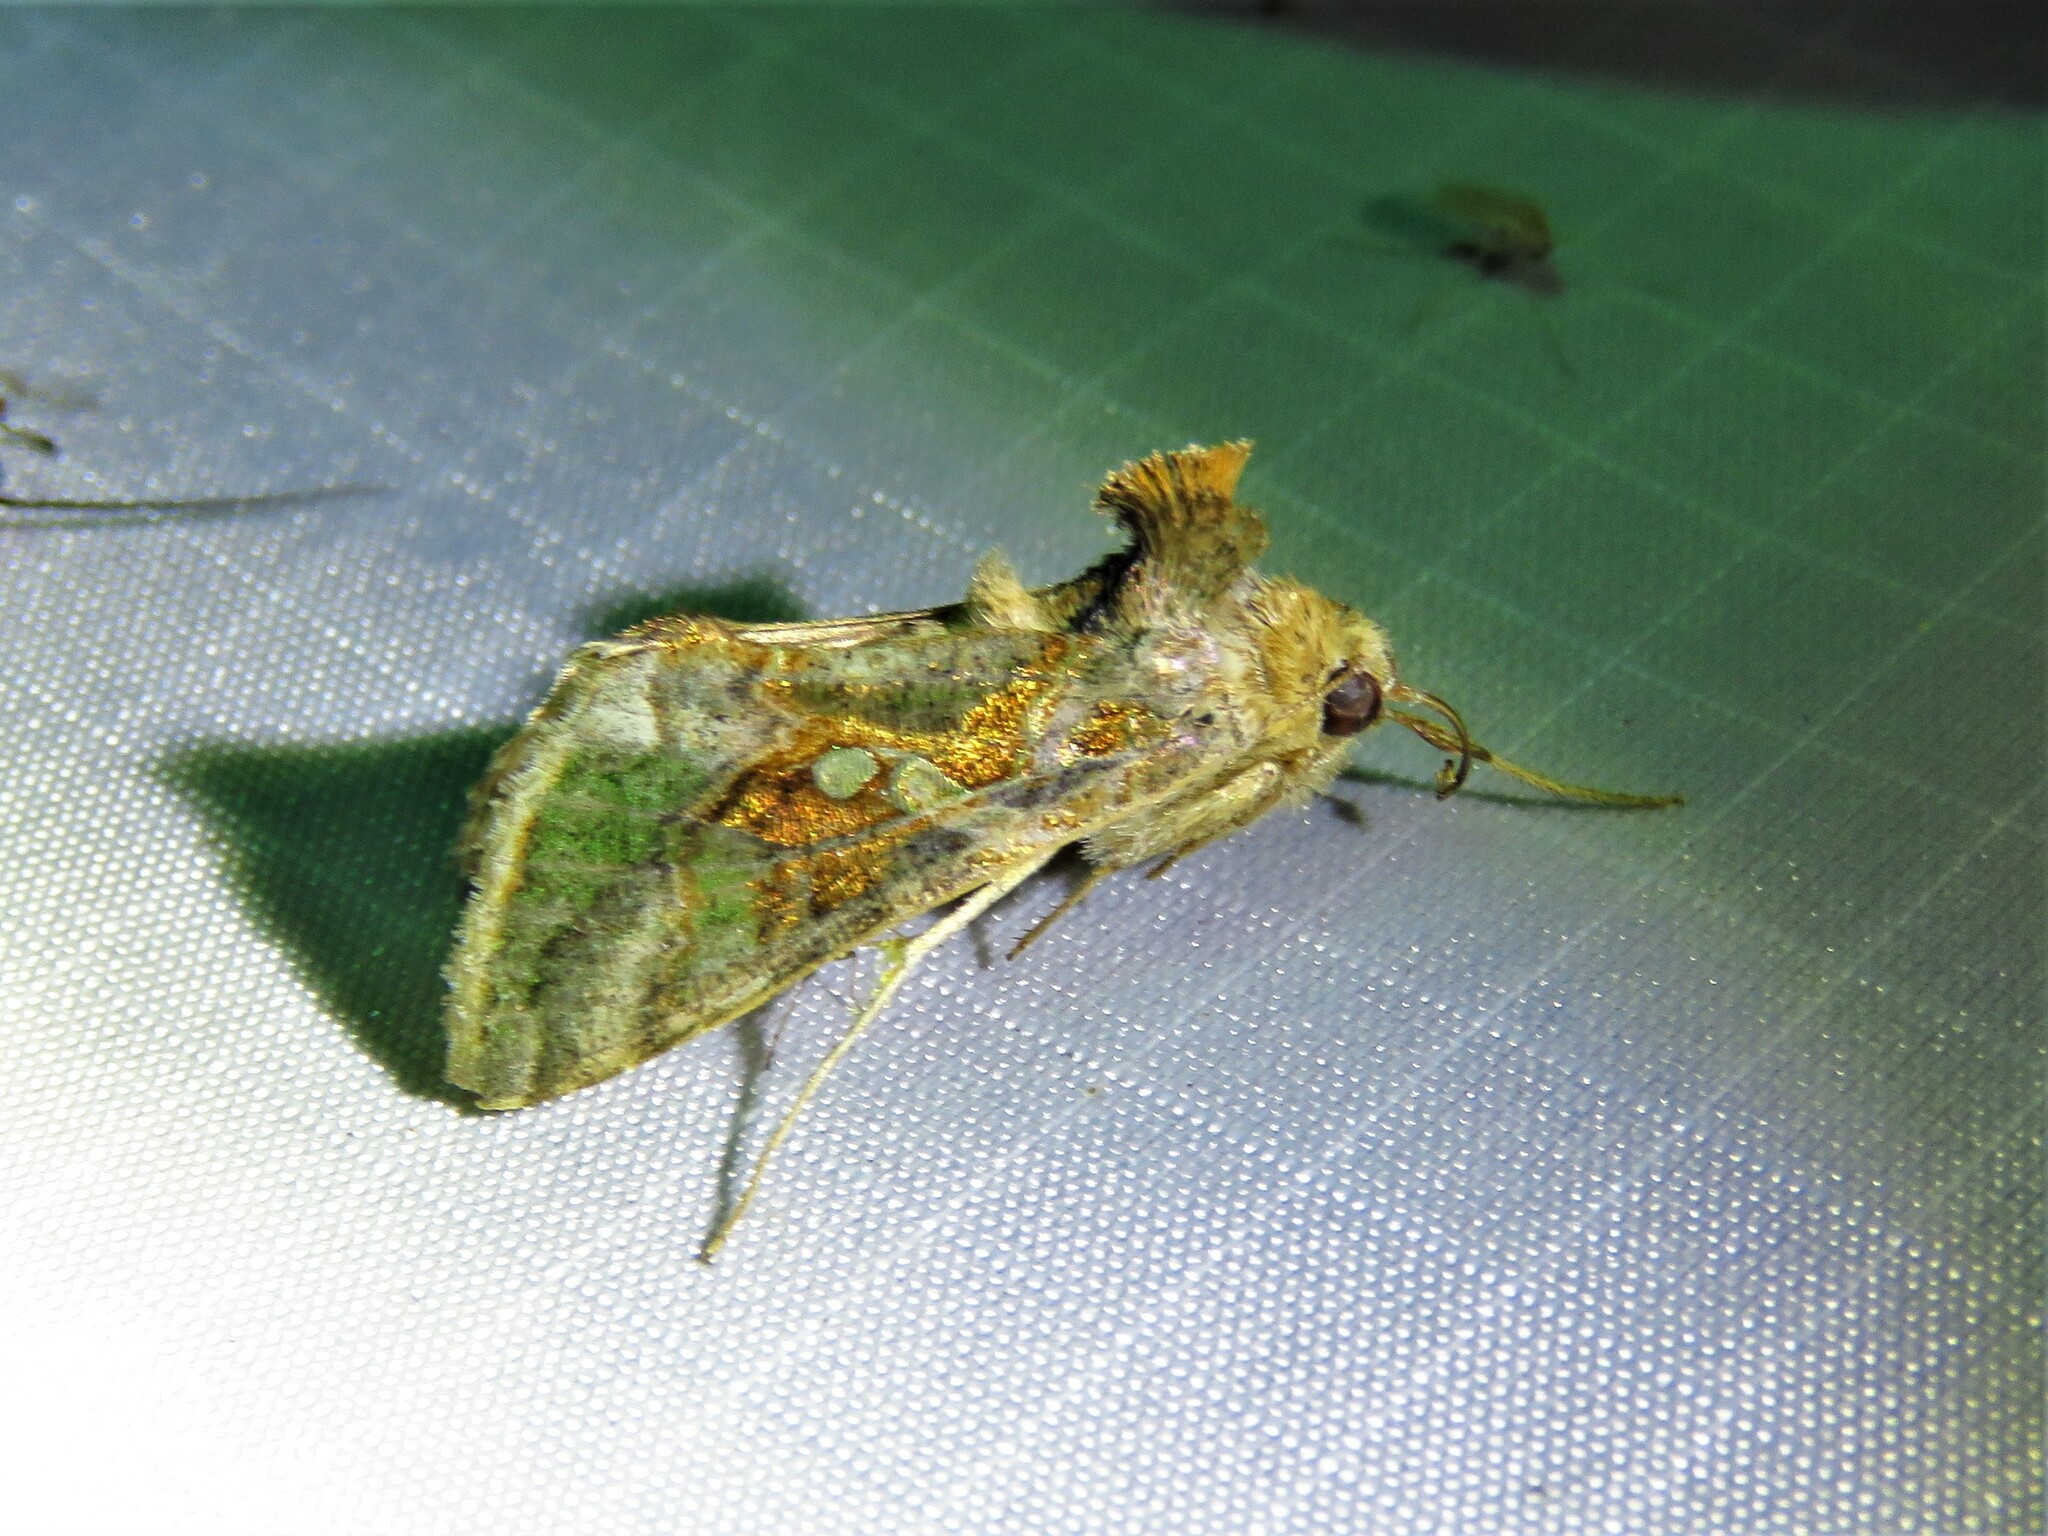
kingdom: Animalia
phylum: Arthropoda
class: Insecta
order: Lepidoptera
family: Noctuidae
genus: Chrysodeixis
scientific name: Chrysodeixis includens
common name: Cutworm moth
